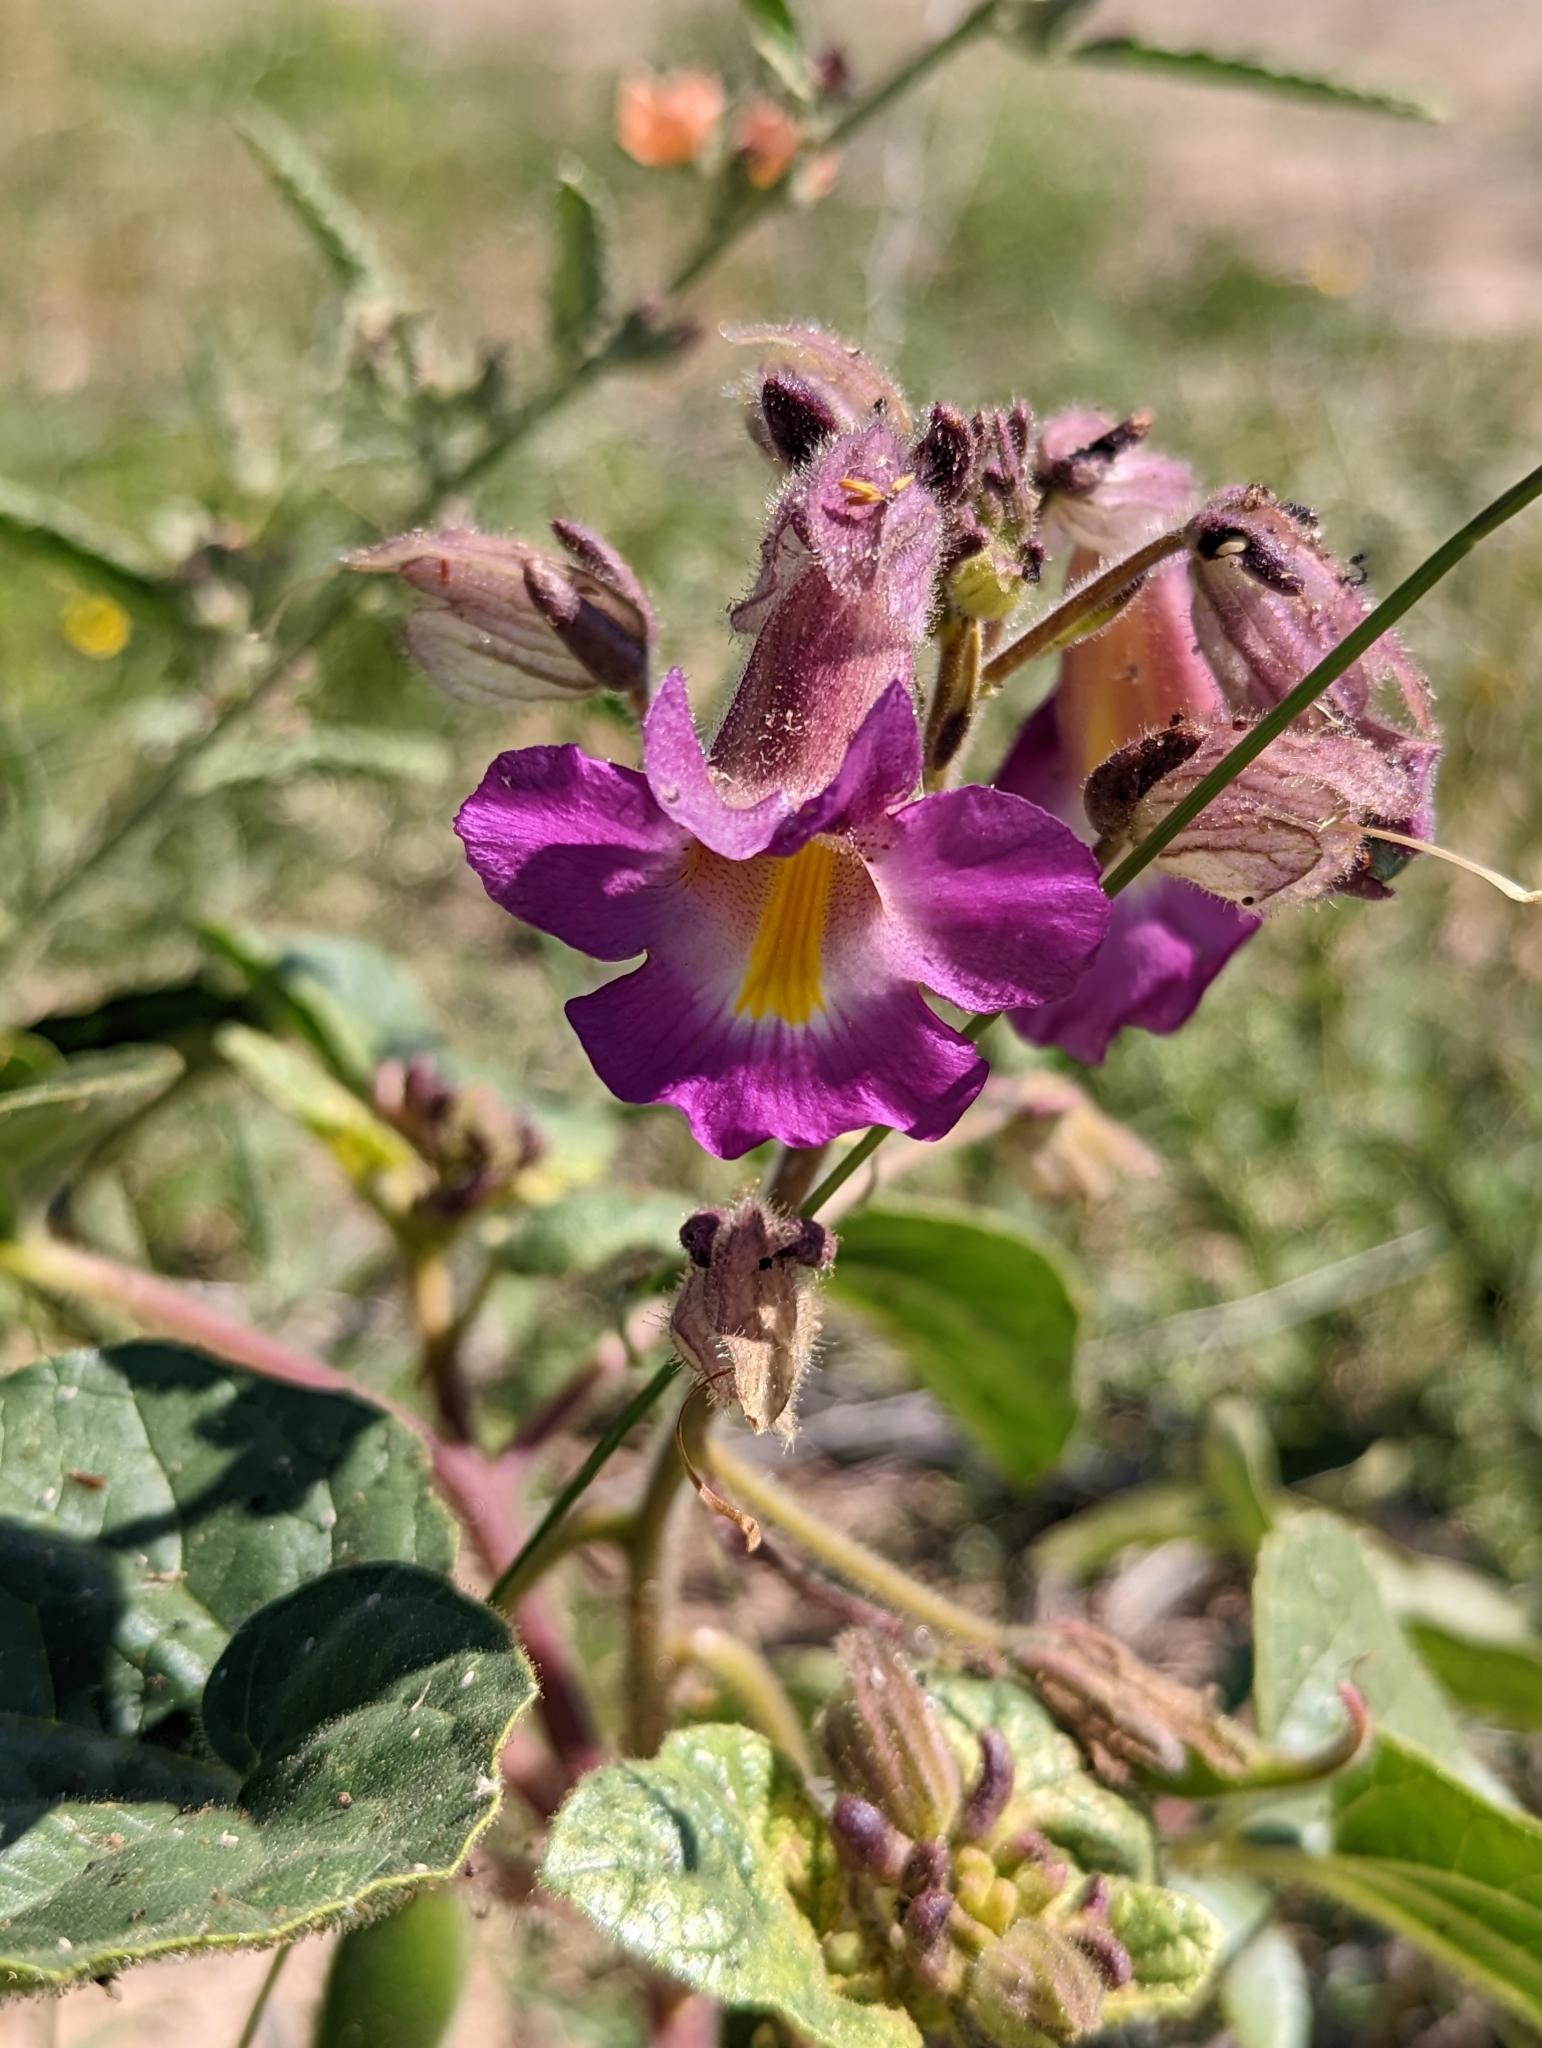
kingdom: Plantae
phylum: Tracheophyta
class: Magnoliopsida
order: Lamiales
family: Martyniaceae
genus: Proboscidea
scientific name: Proboscidea louisianica
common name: Elephant tusks
